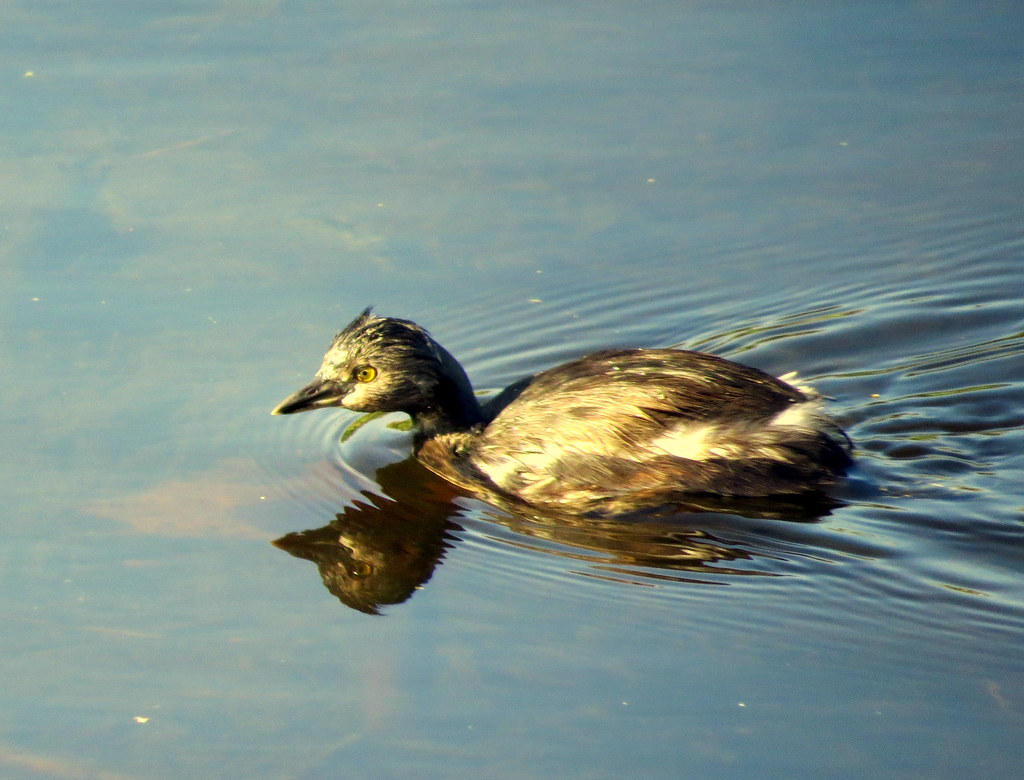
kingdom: Animalia
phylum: Chordata
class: Aves
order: Podicipediformes
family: Podicipedidae
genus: Tachybaptus
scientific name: Tachybaptus dominicus
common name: Least grebe
